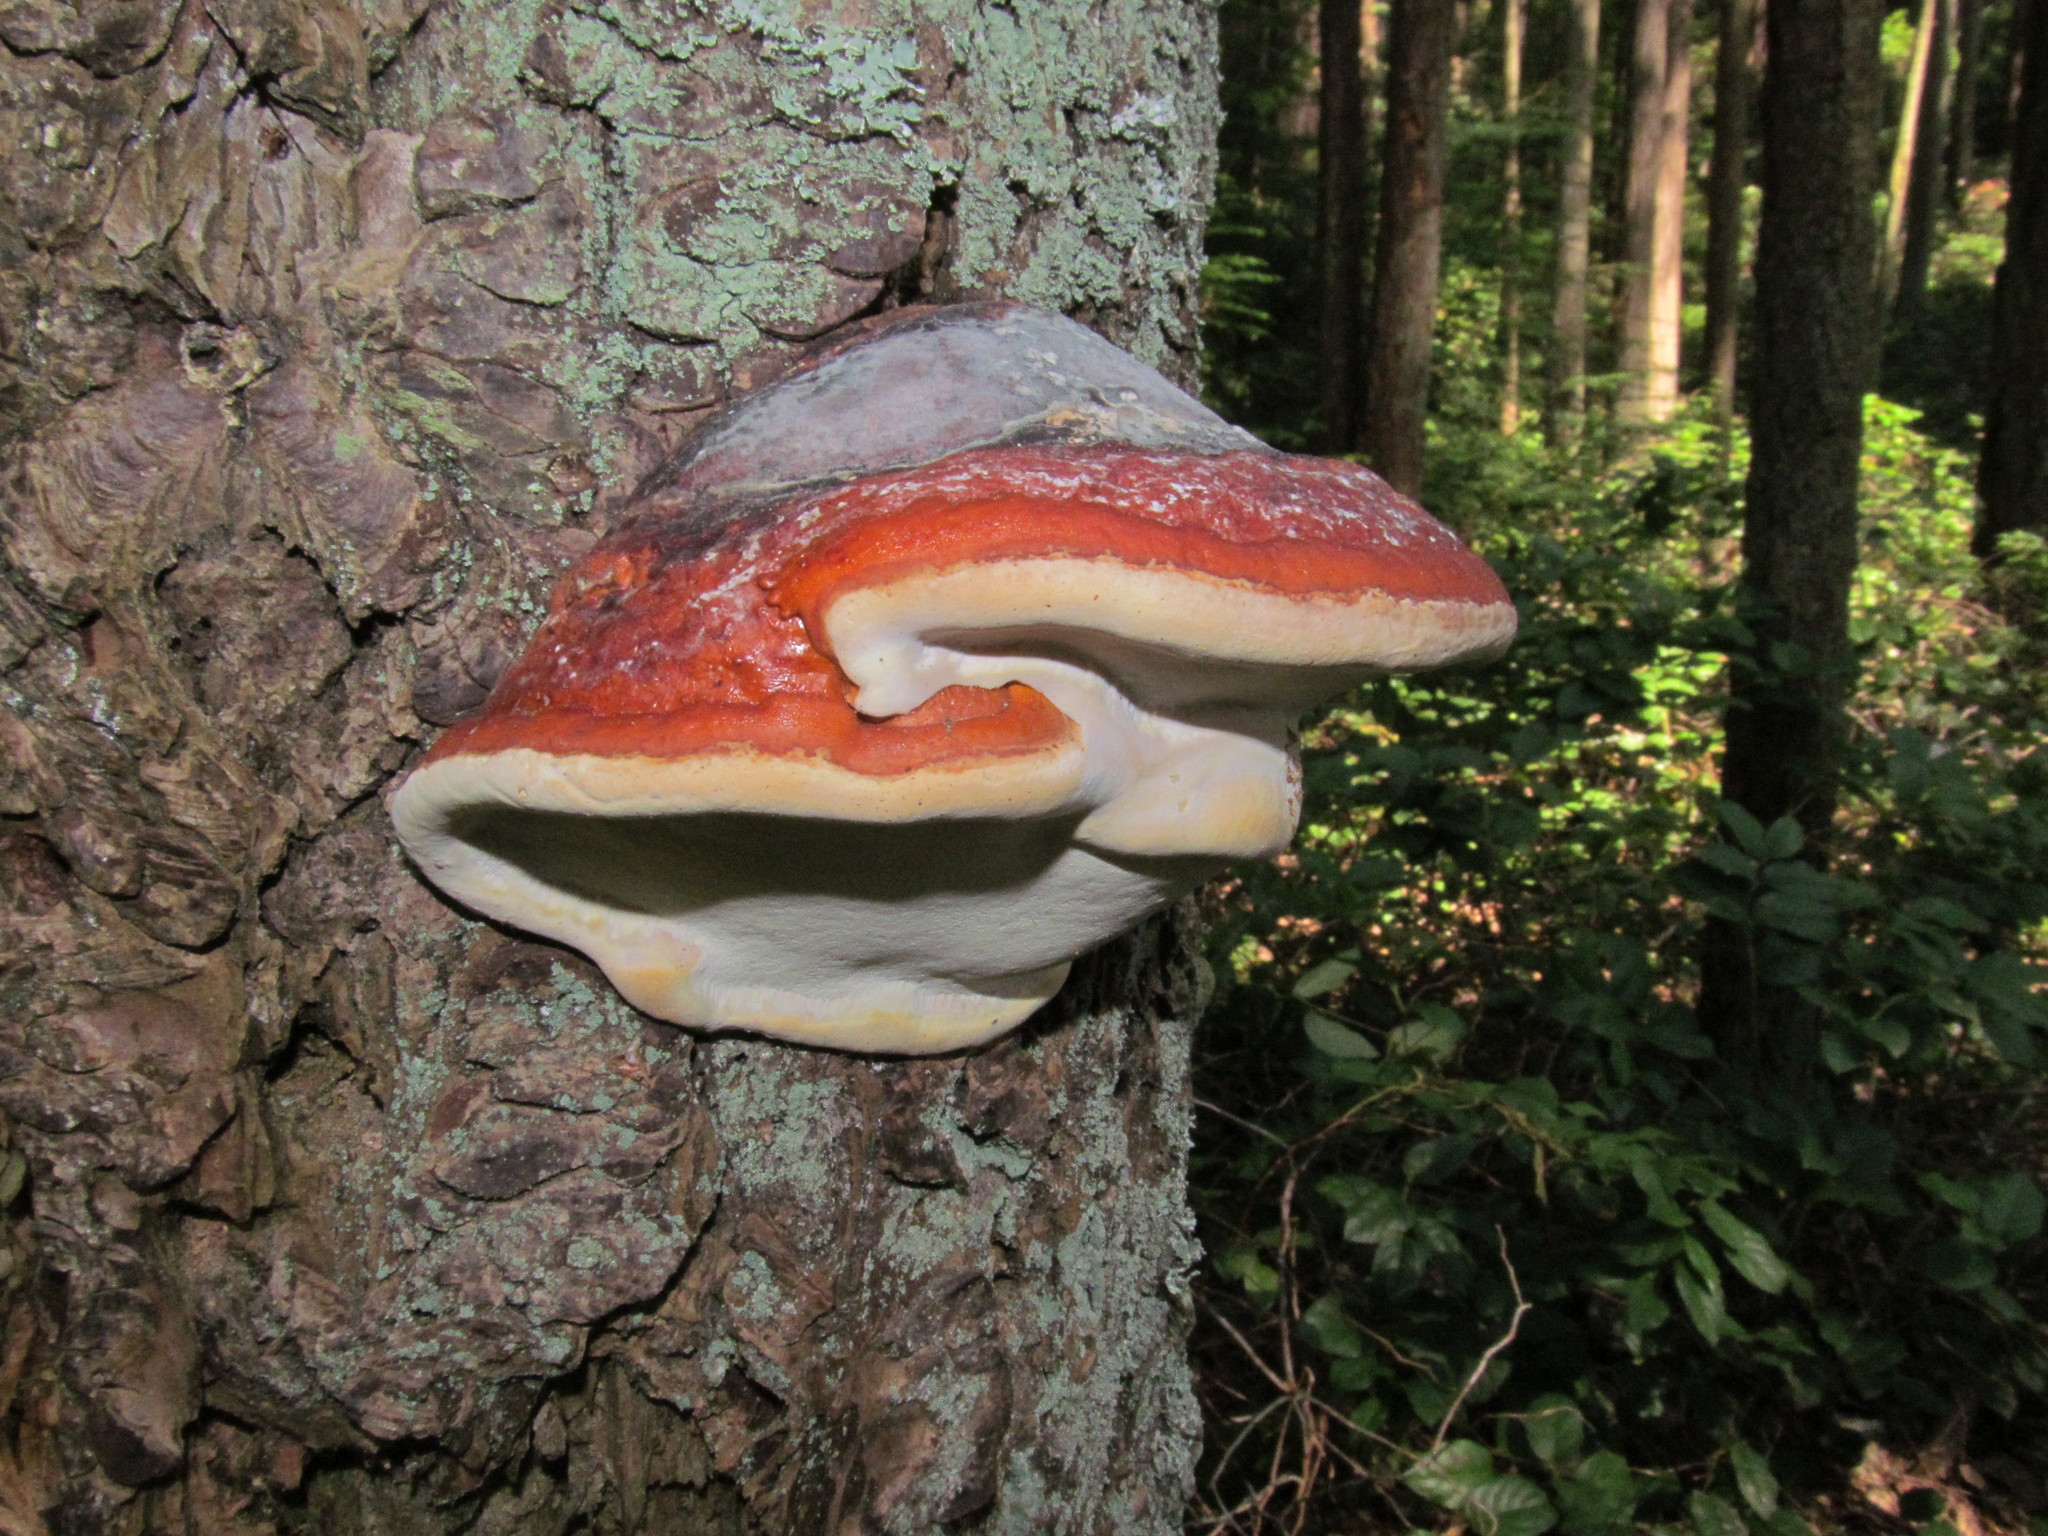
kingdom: Fungi
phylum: Basidiomycota
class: Agaricomycetes
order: Polyporales
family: Fomitopsidaceae
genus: Fomitopsis
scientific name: Fomitopsis mounceae
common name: Northern red belt
